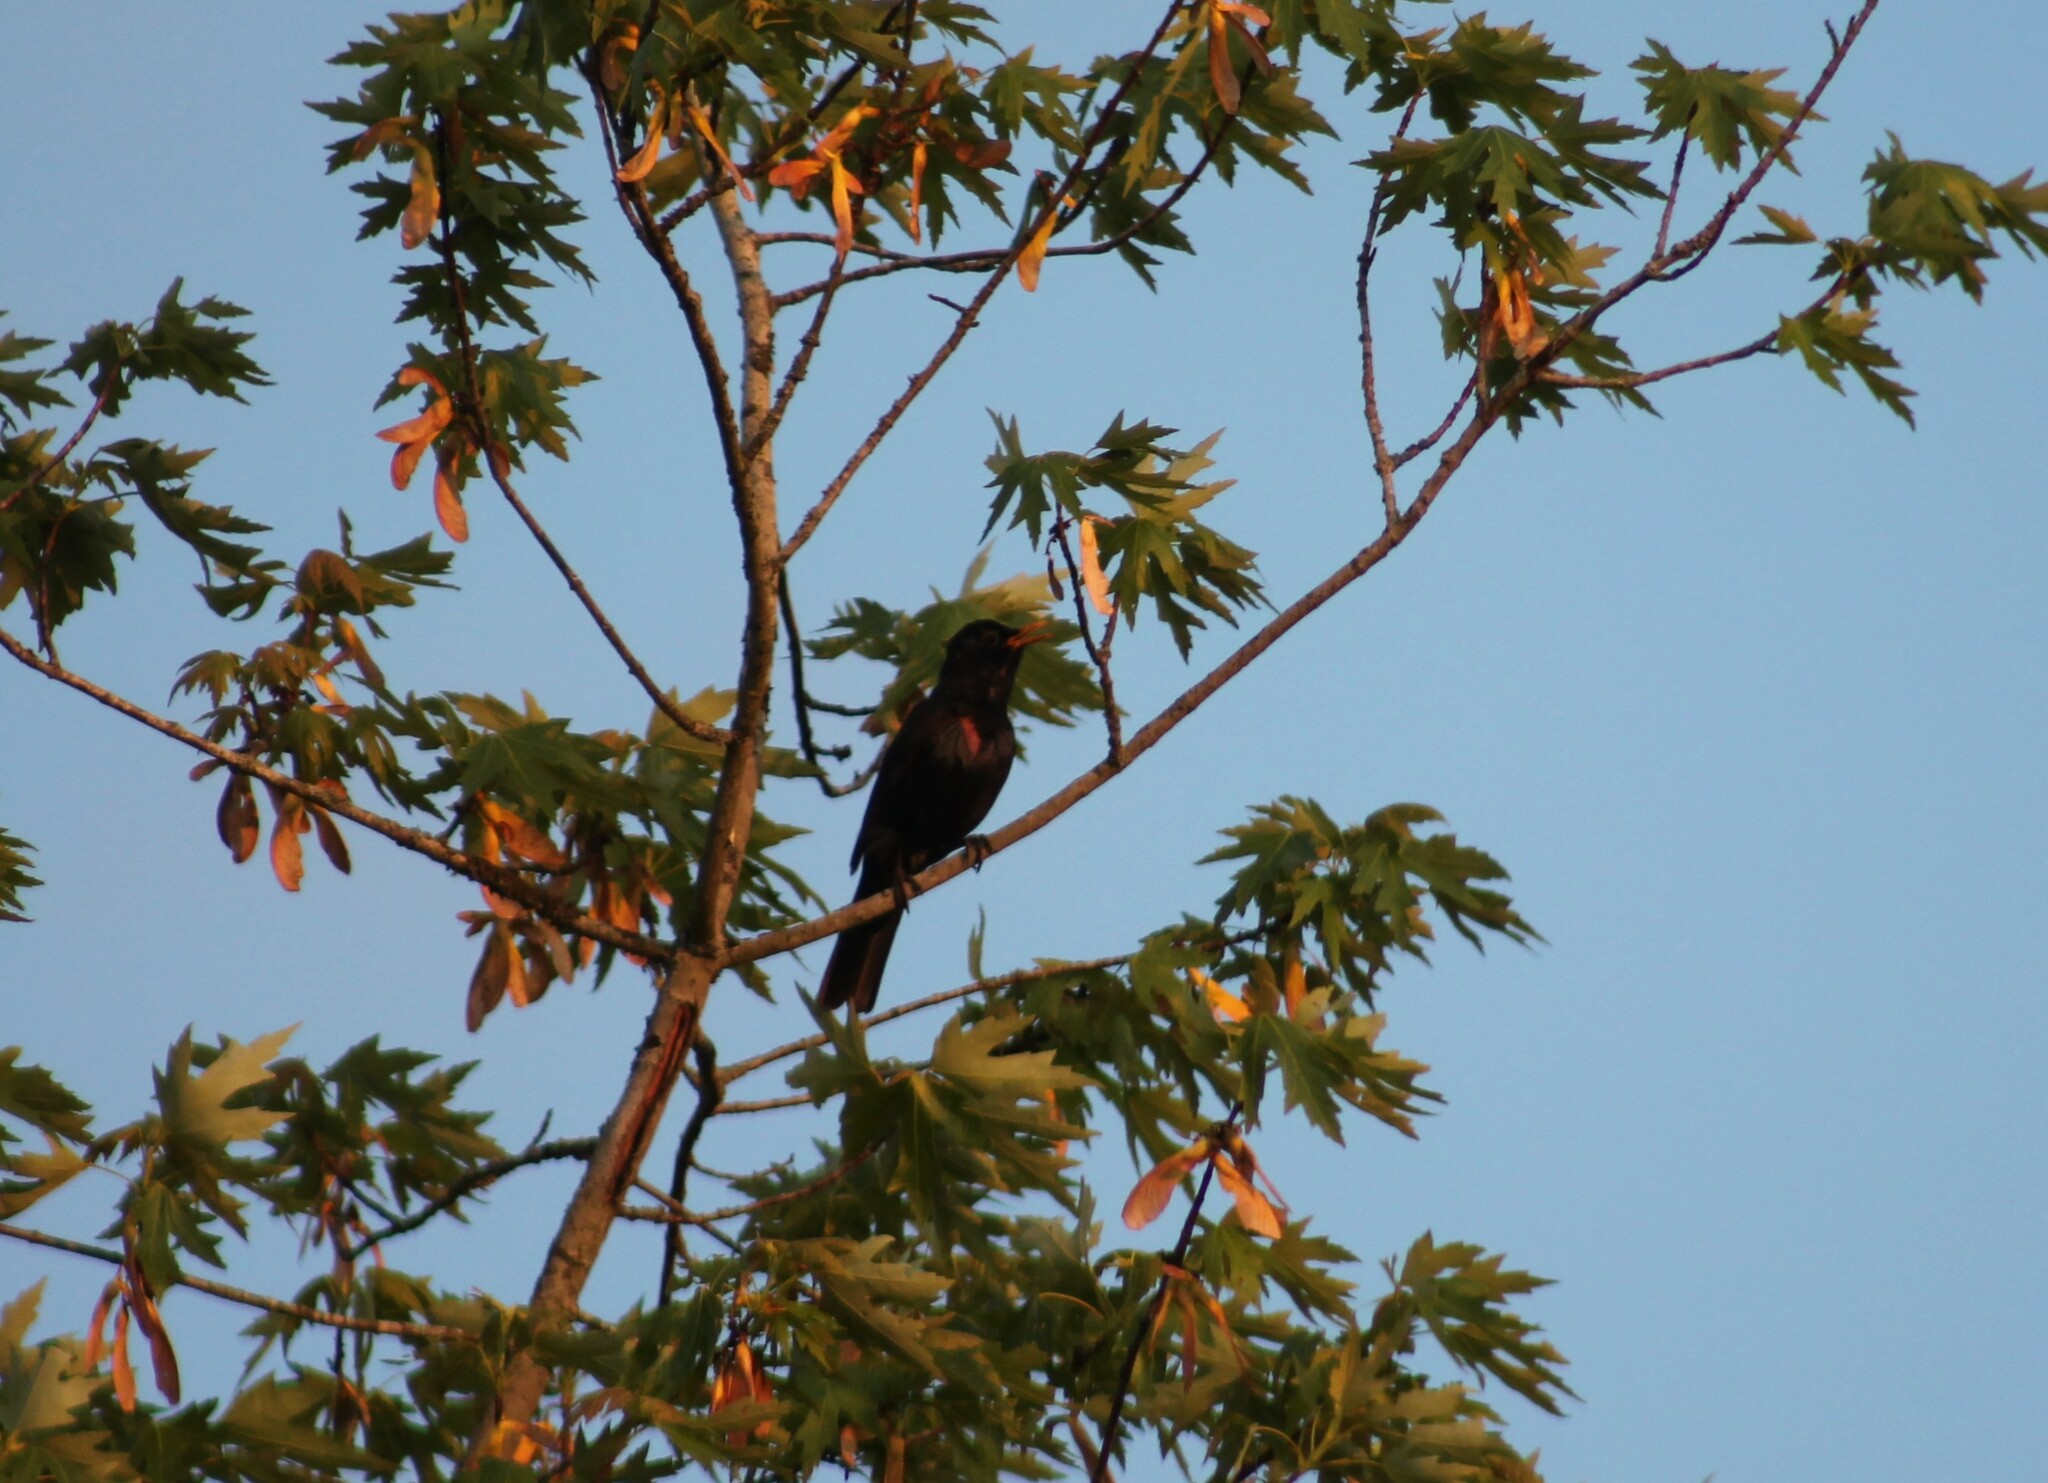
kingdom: Animalia
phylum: Chordata
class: Aves
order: Passeriformes
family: Turdidae
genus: Turdus
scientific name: Turdus merula
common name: Common blackbird
